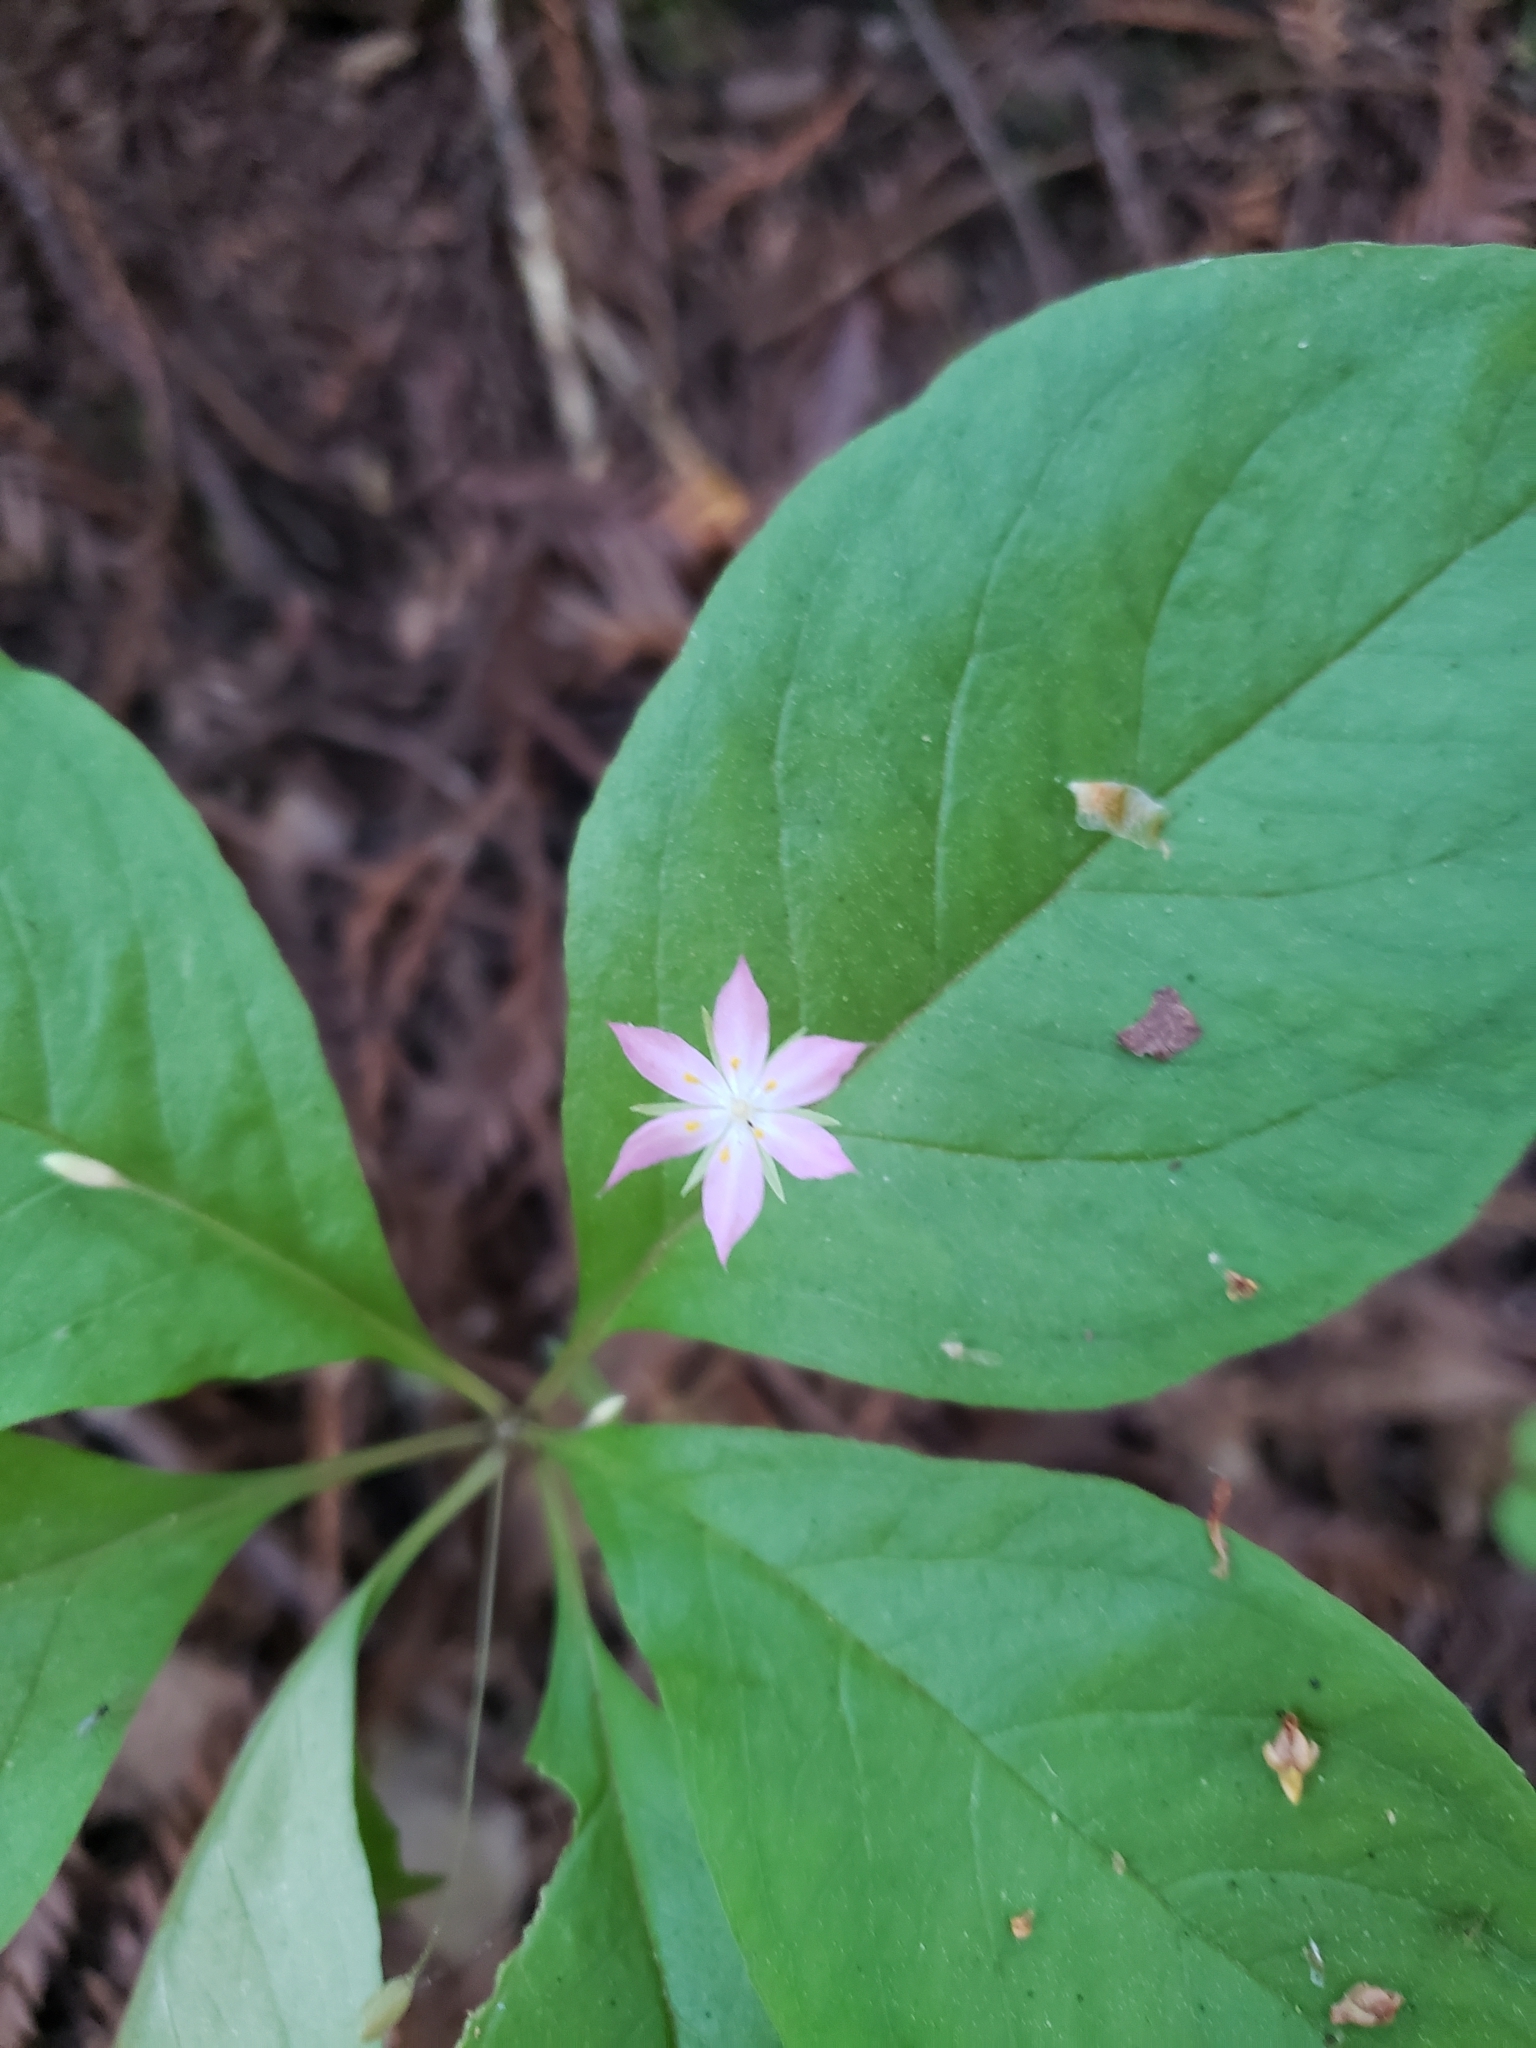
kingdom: Plantae
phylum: Tracheophyta
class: Magnoliopsida
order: Ericales
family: Primulaceae
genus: Lysimachia
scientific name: Lysimachia latifolia
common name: Pacific starflower
